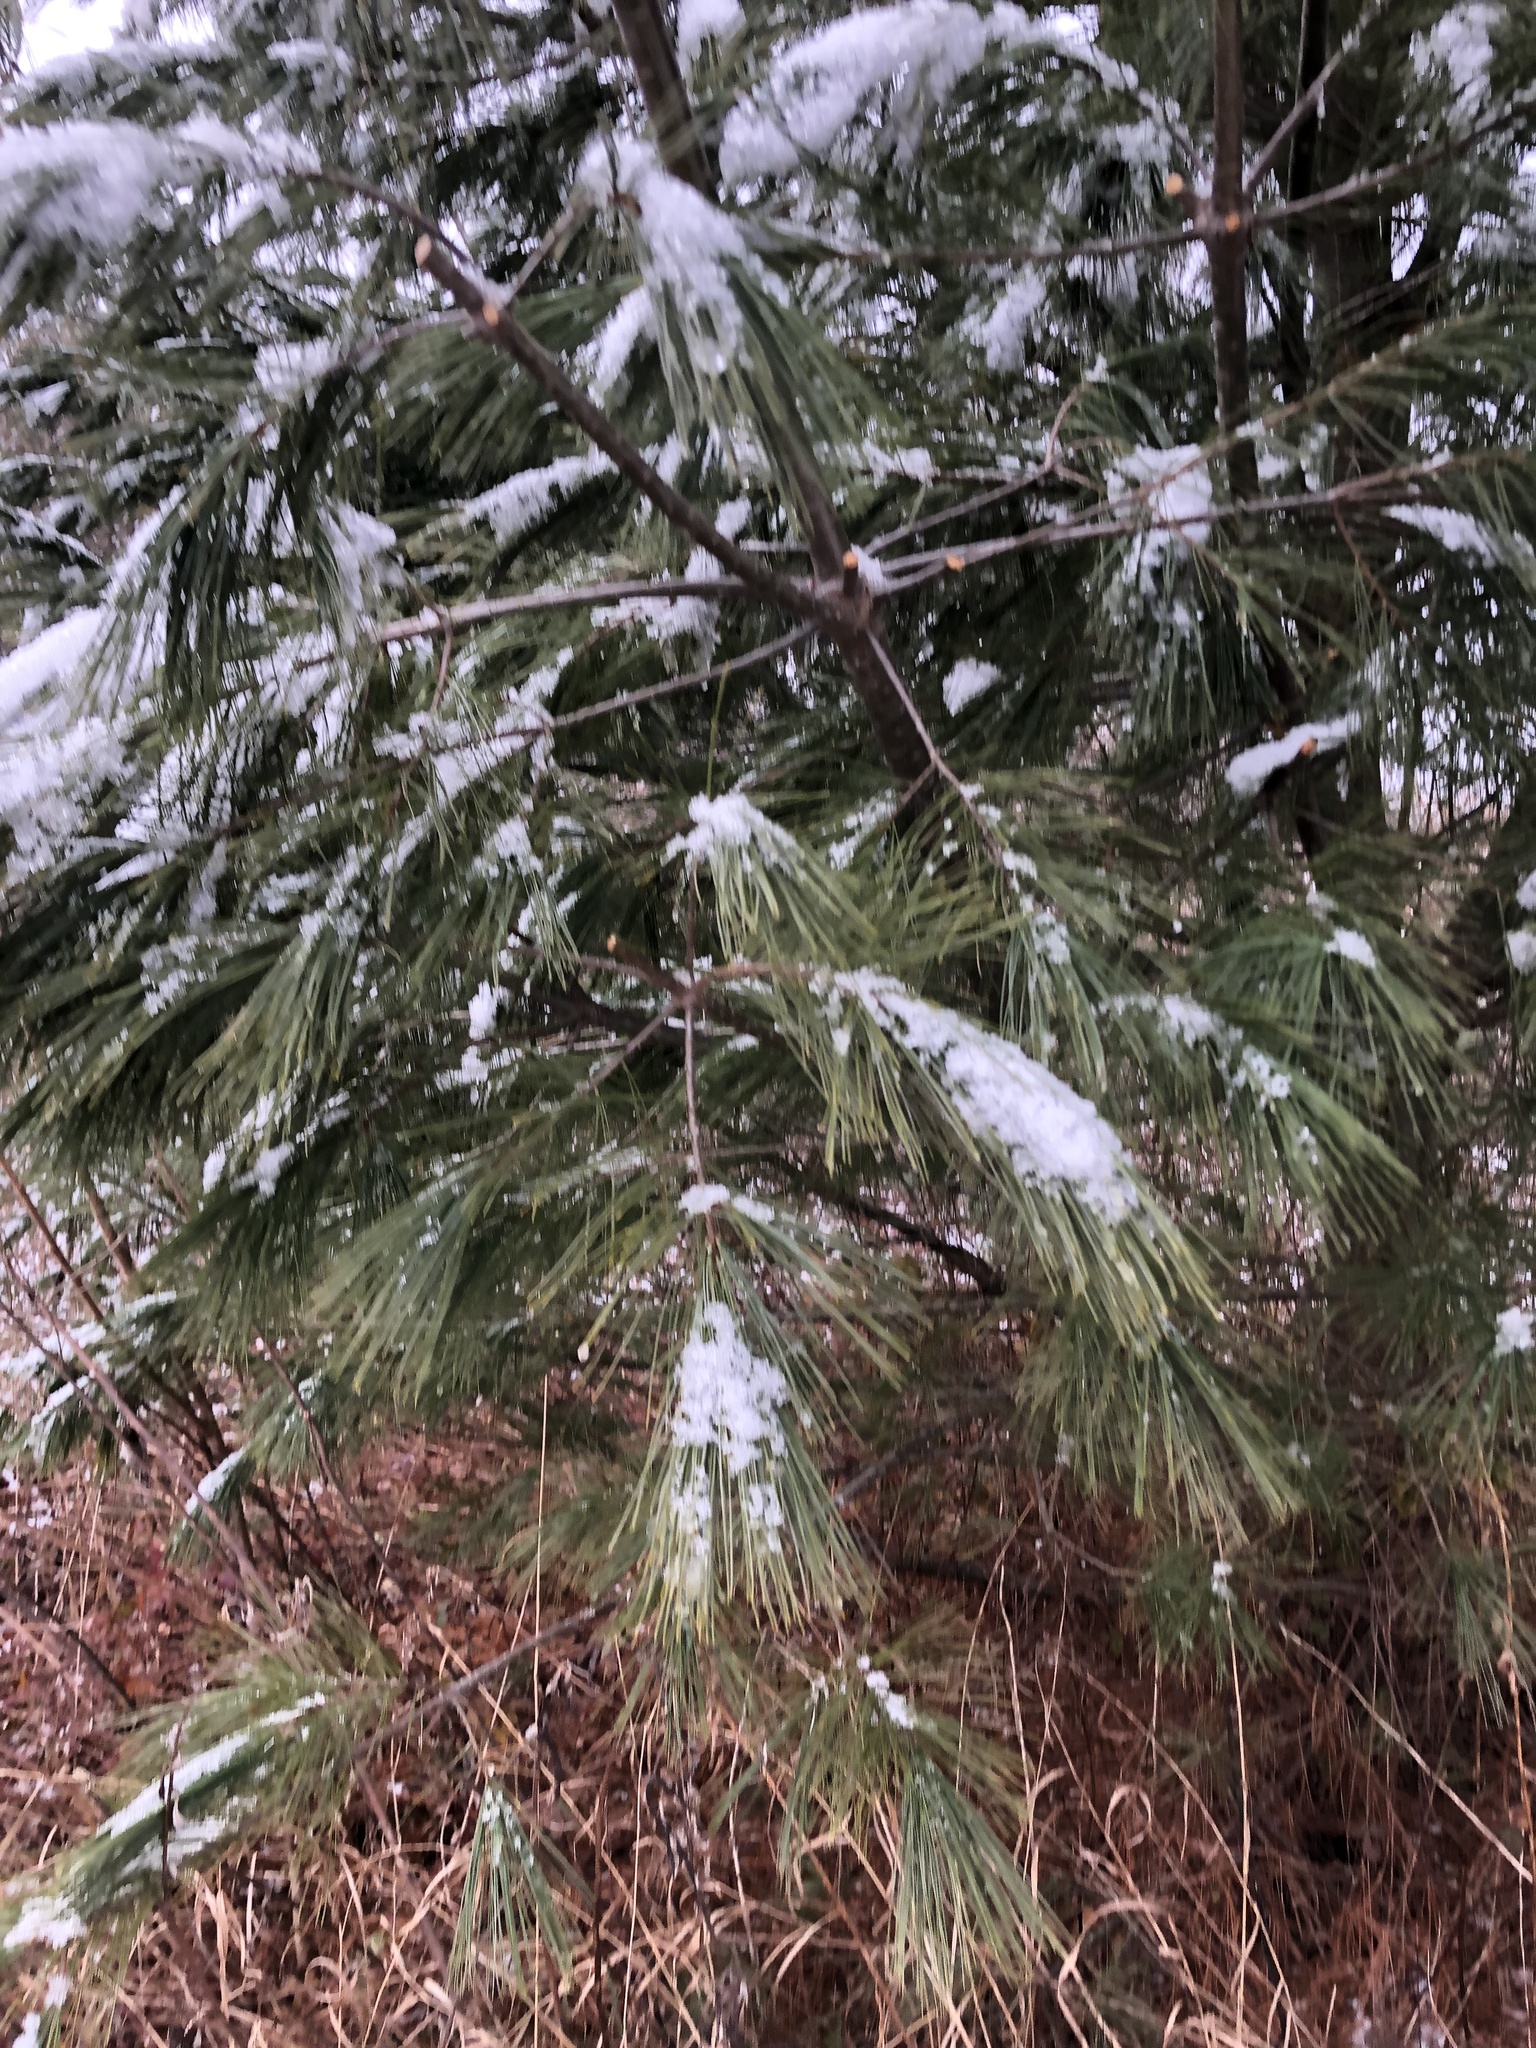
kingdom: Plantae
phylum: Tracheophyta
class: Pinopsida
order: Pinales
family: Pinaceae
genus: Pinus
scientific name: Pinus strobus
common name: Weymouth pine
